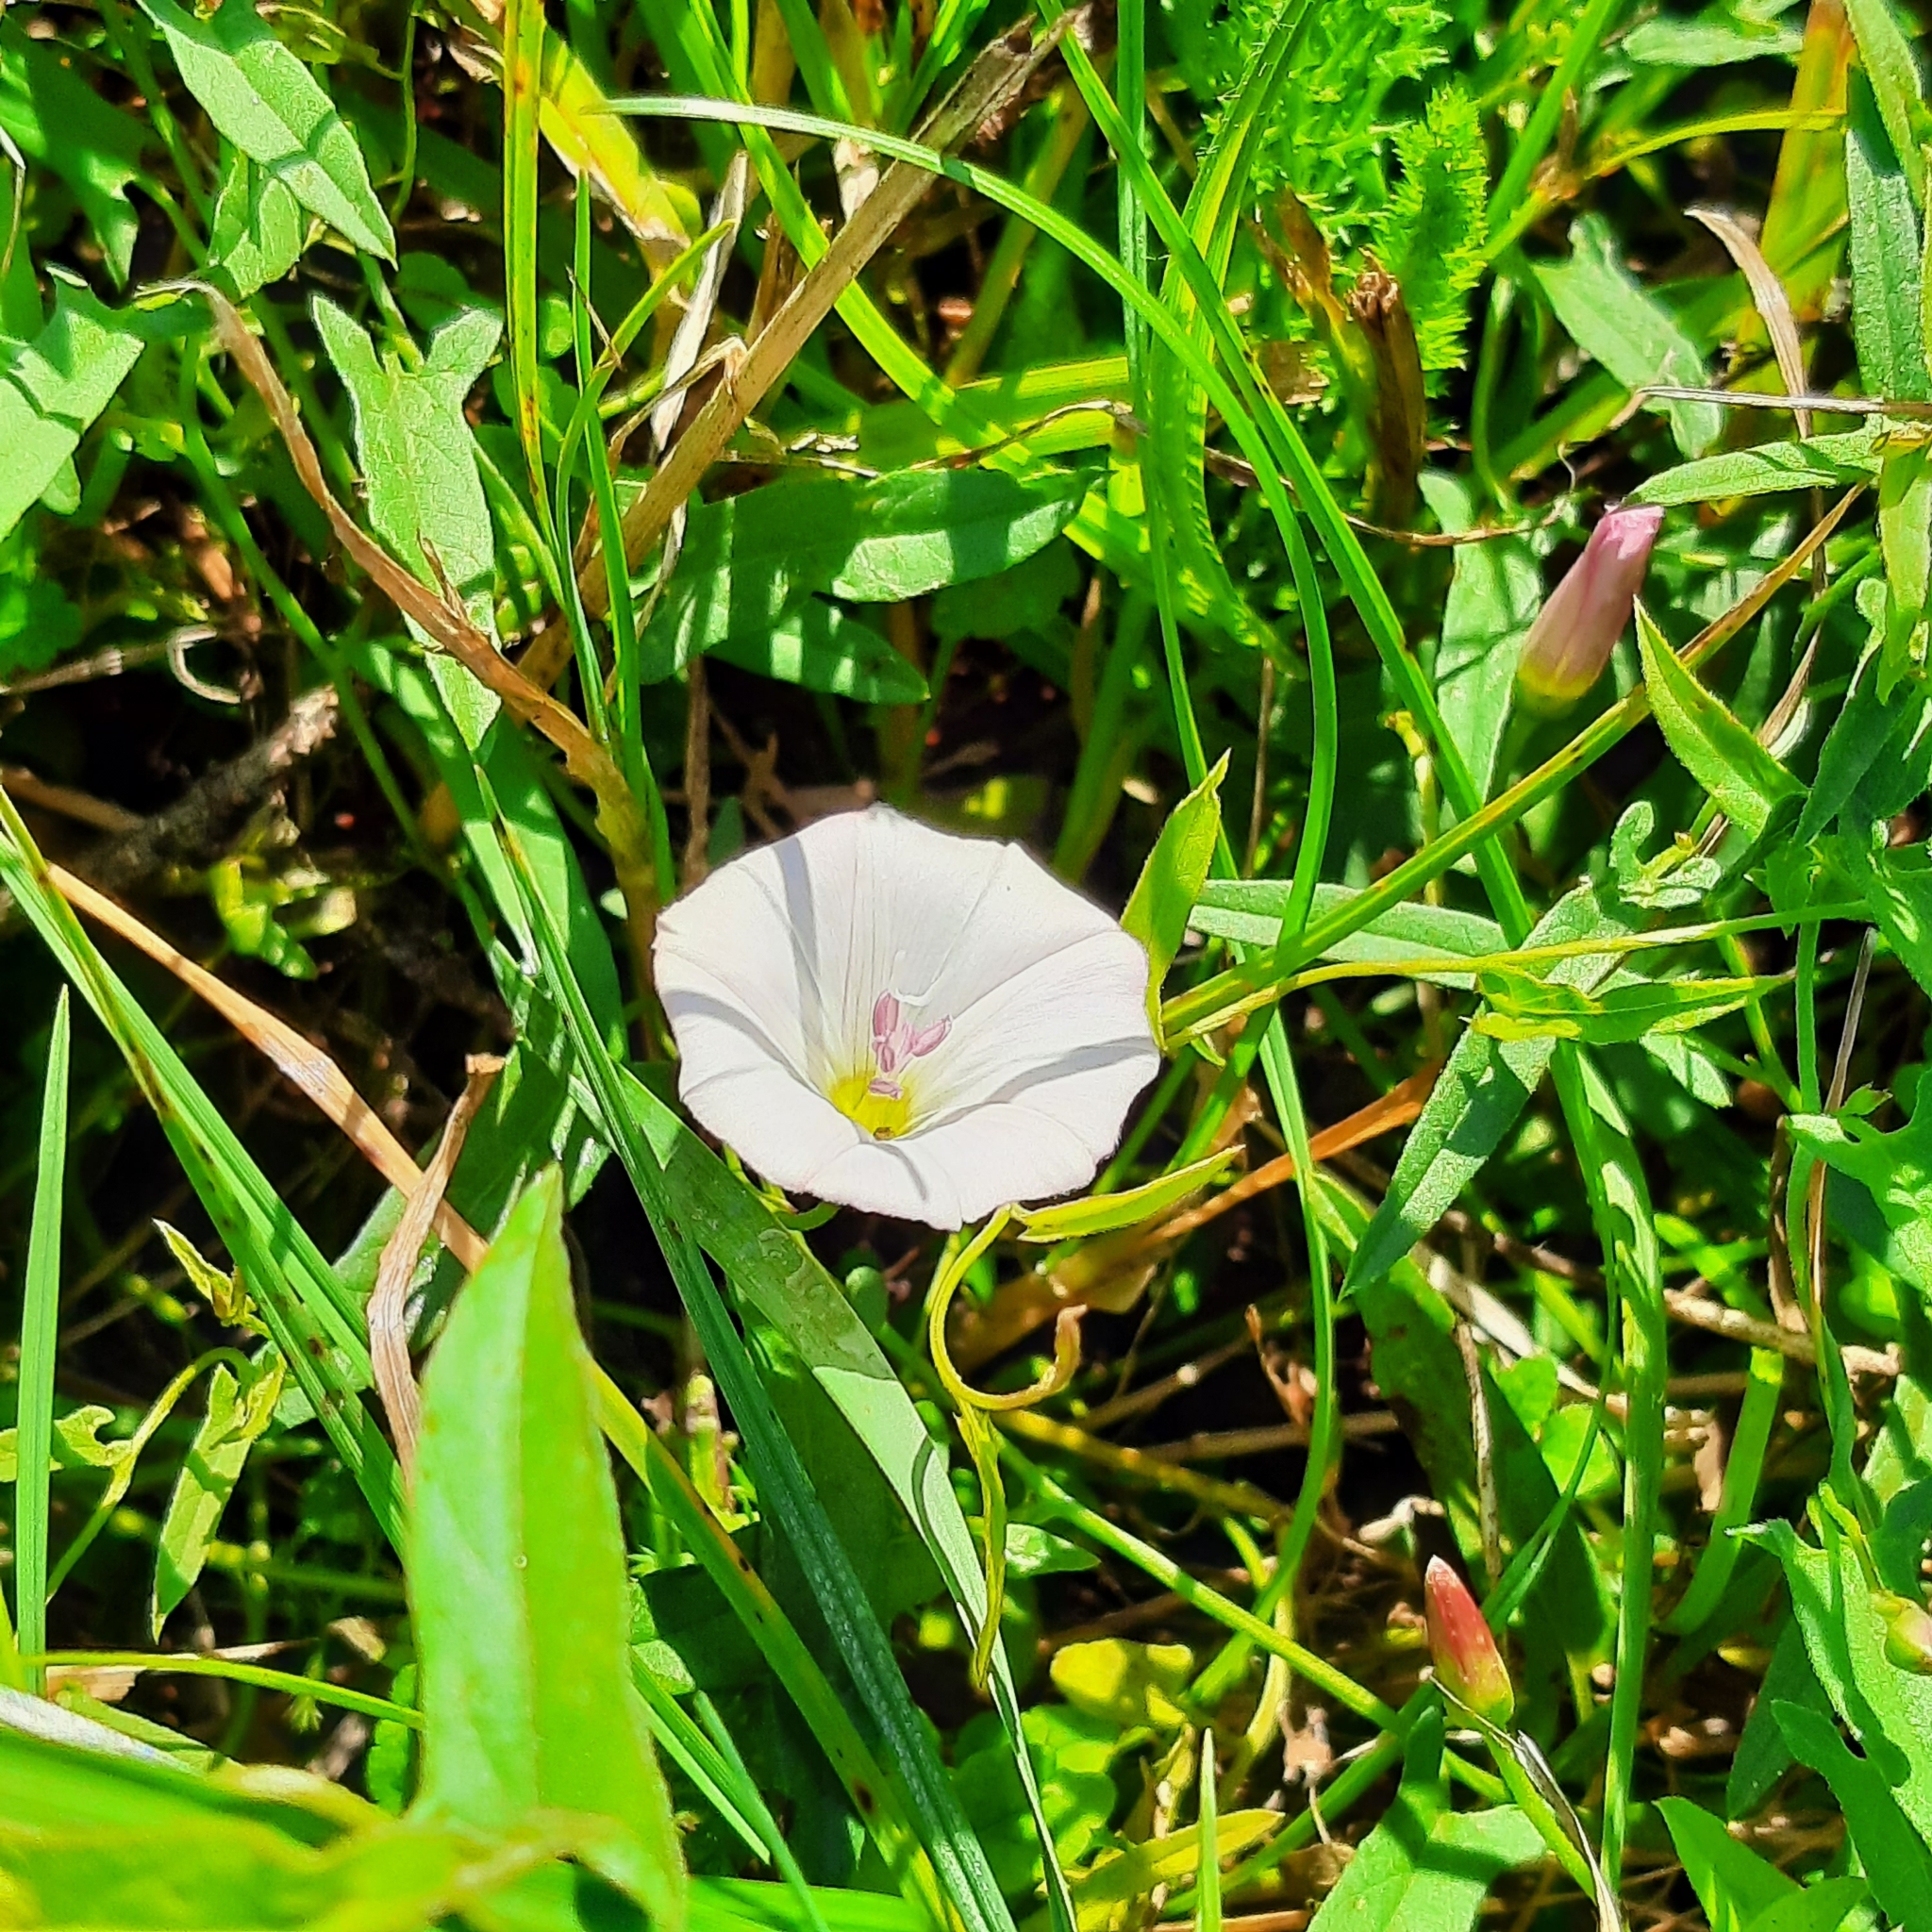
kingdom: Plantae
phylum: Tracheophyta
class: Magnoliopsida
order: Solanales
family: Convolvulaceae
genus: Convolvulus
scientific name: Convolvulus arvensis
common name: Field bindweed
